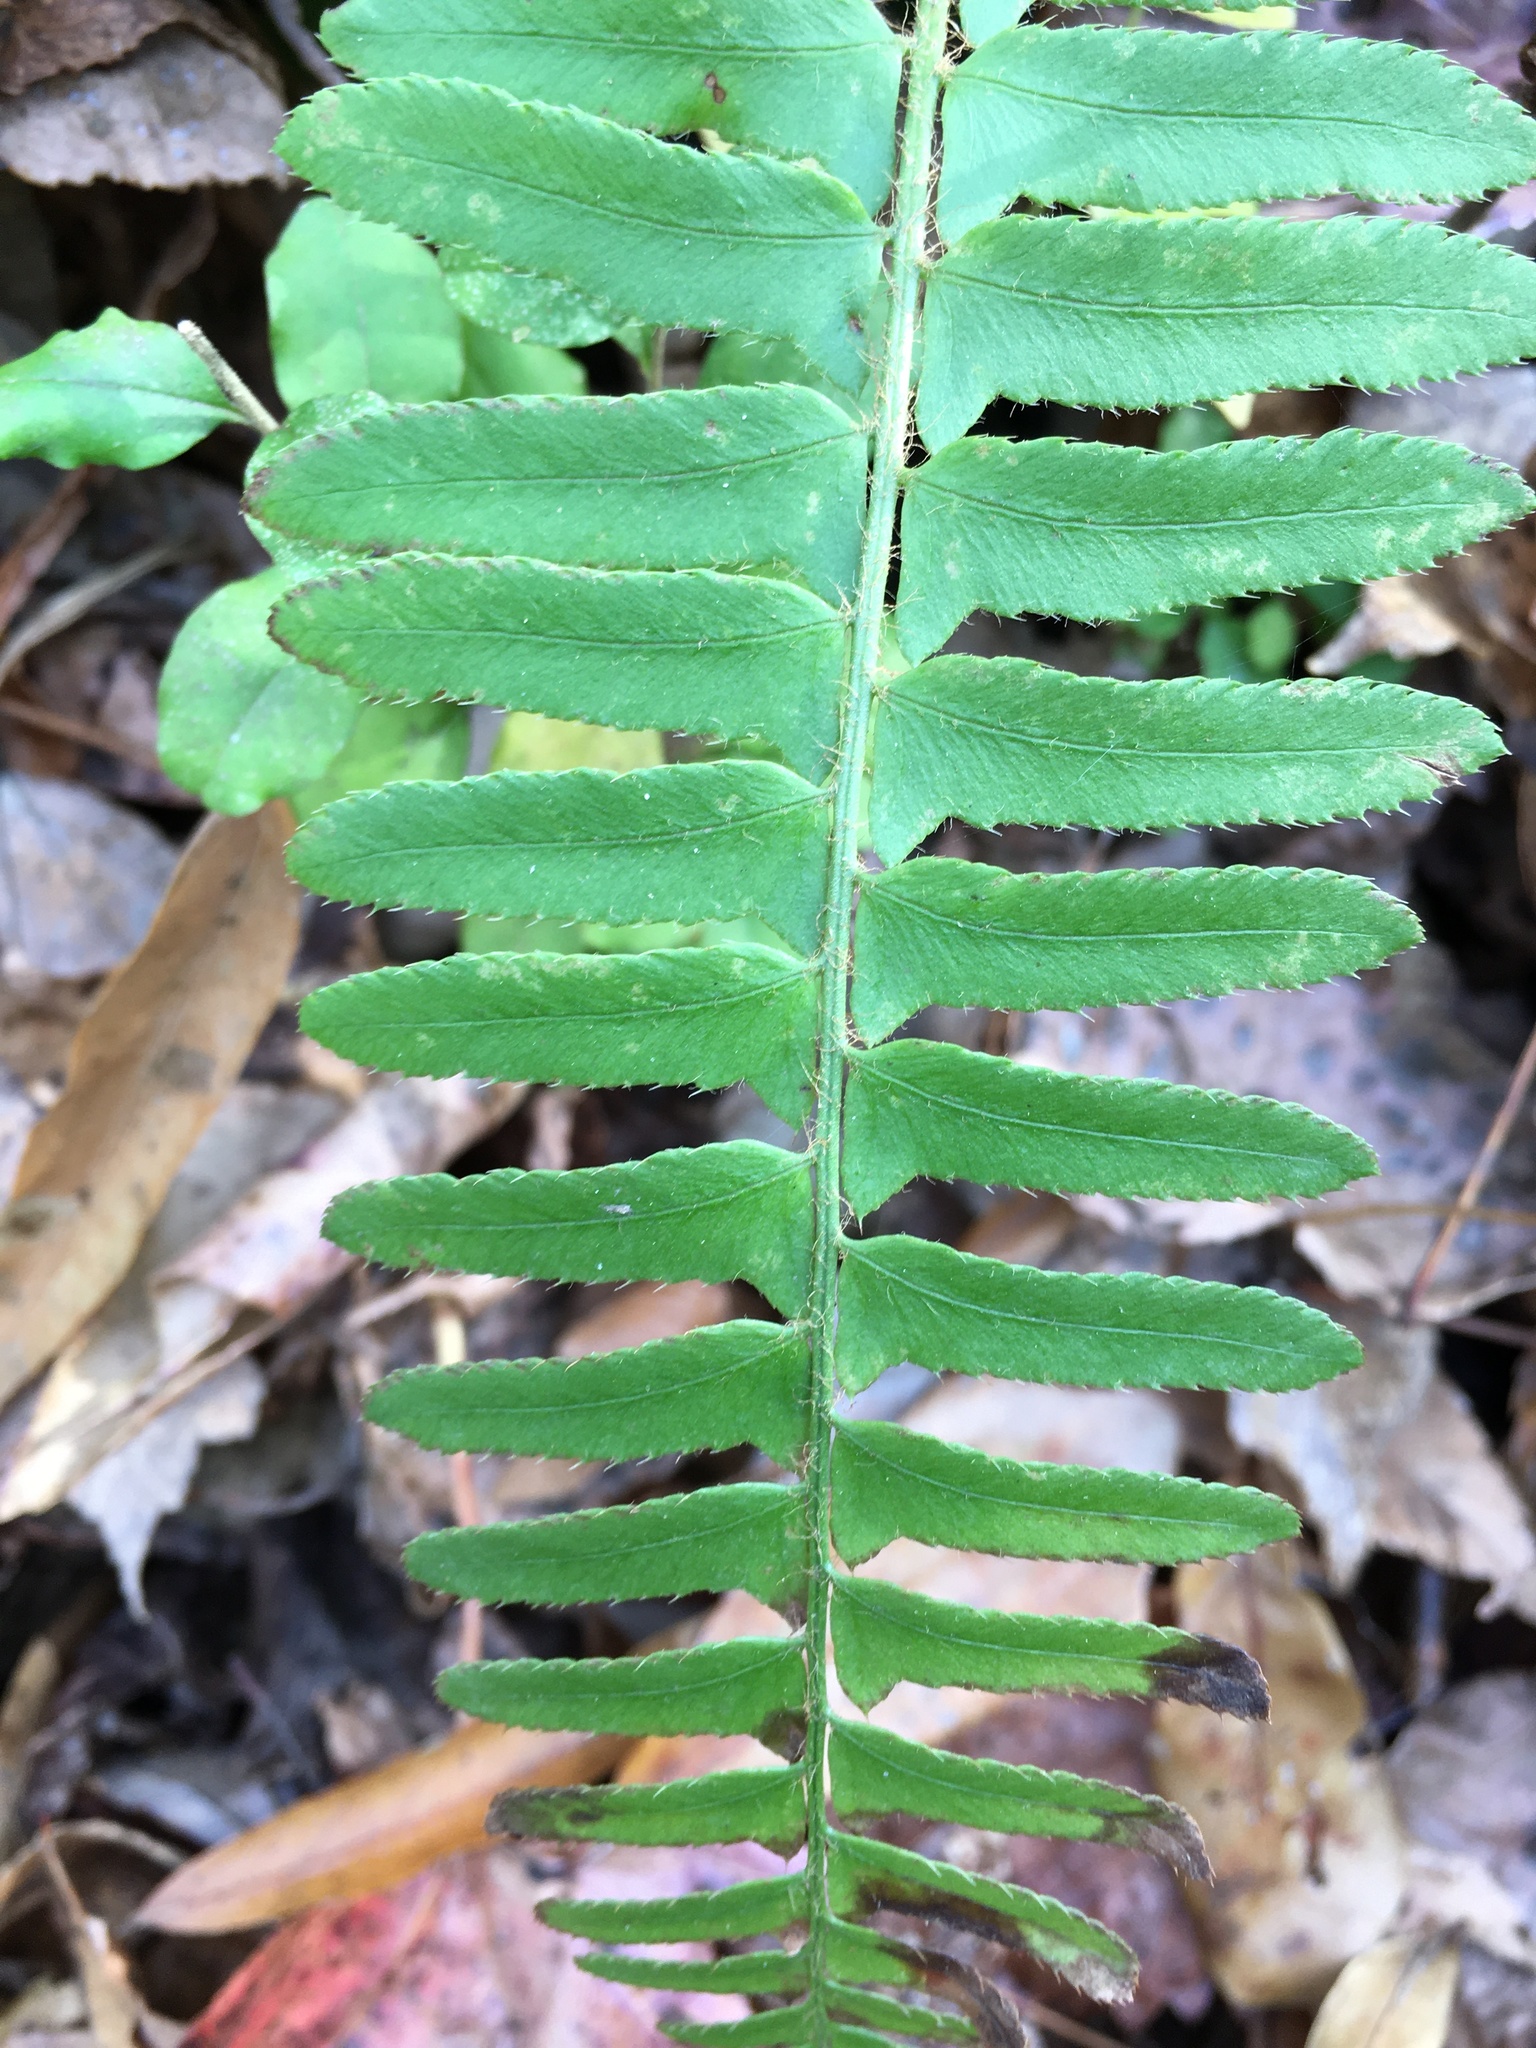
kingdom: Plantae
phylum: Tracheophyta
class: Polypodiopsida
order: Polypodiales
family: Dryopteridaceae
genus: Polystichum
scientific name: Polystichum acrostichoides
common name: Christmas fern
